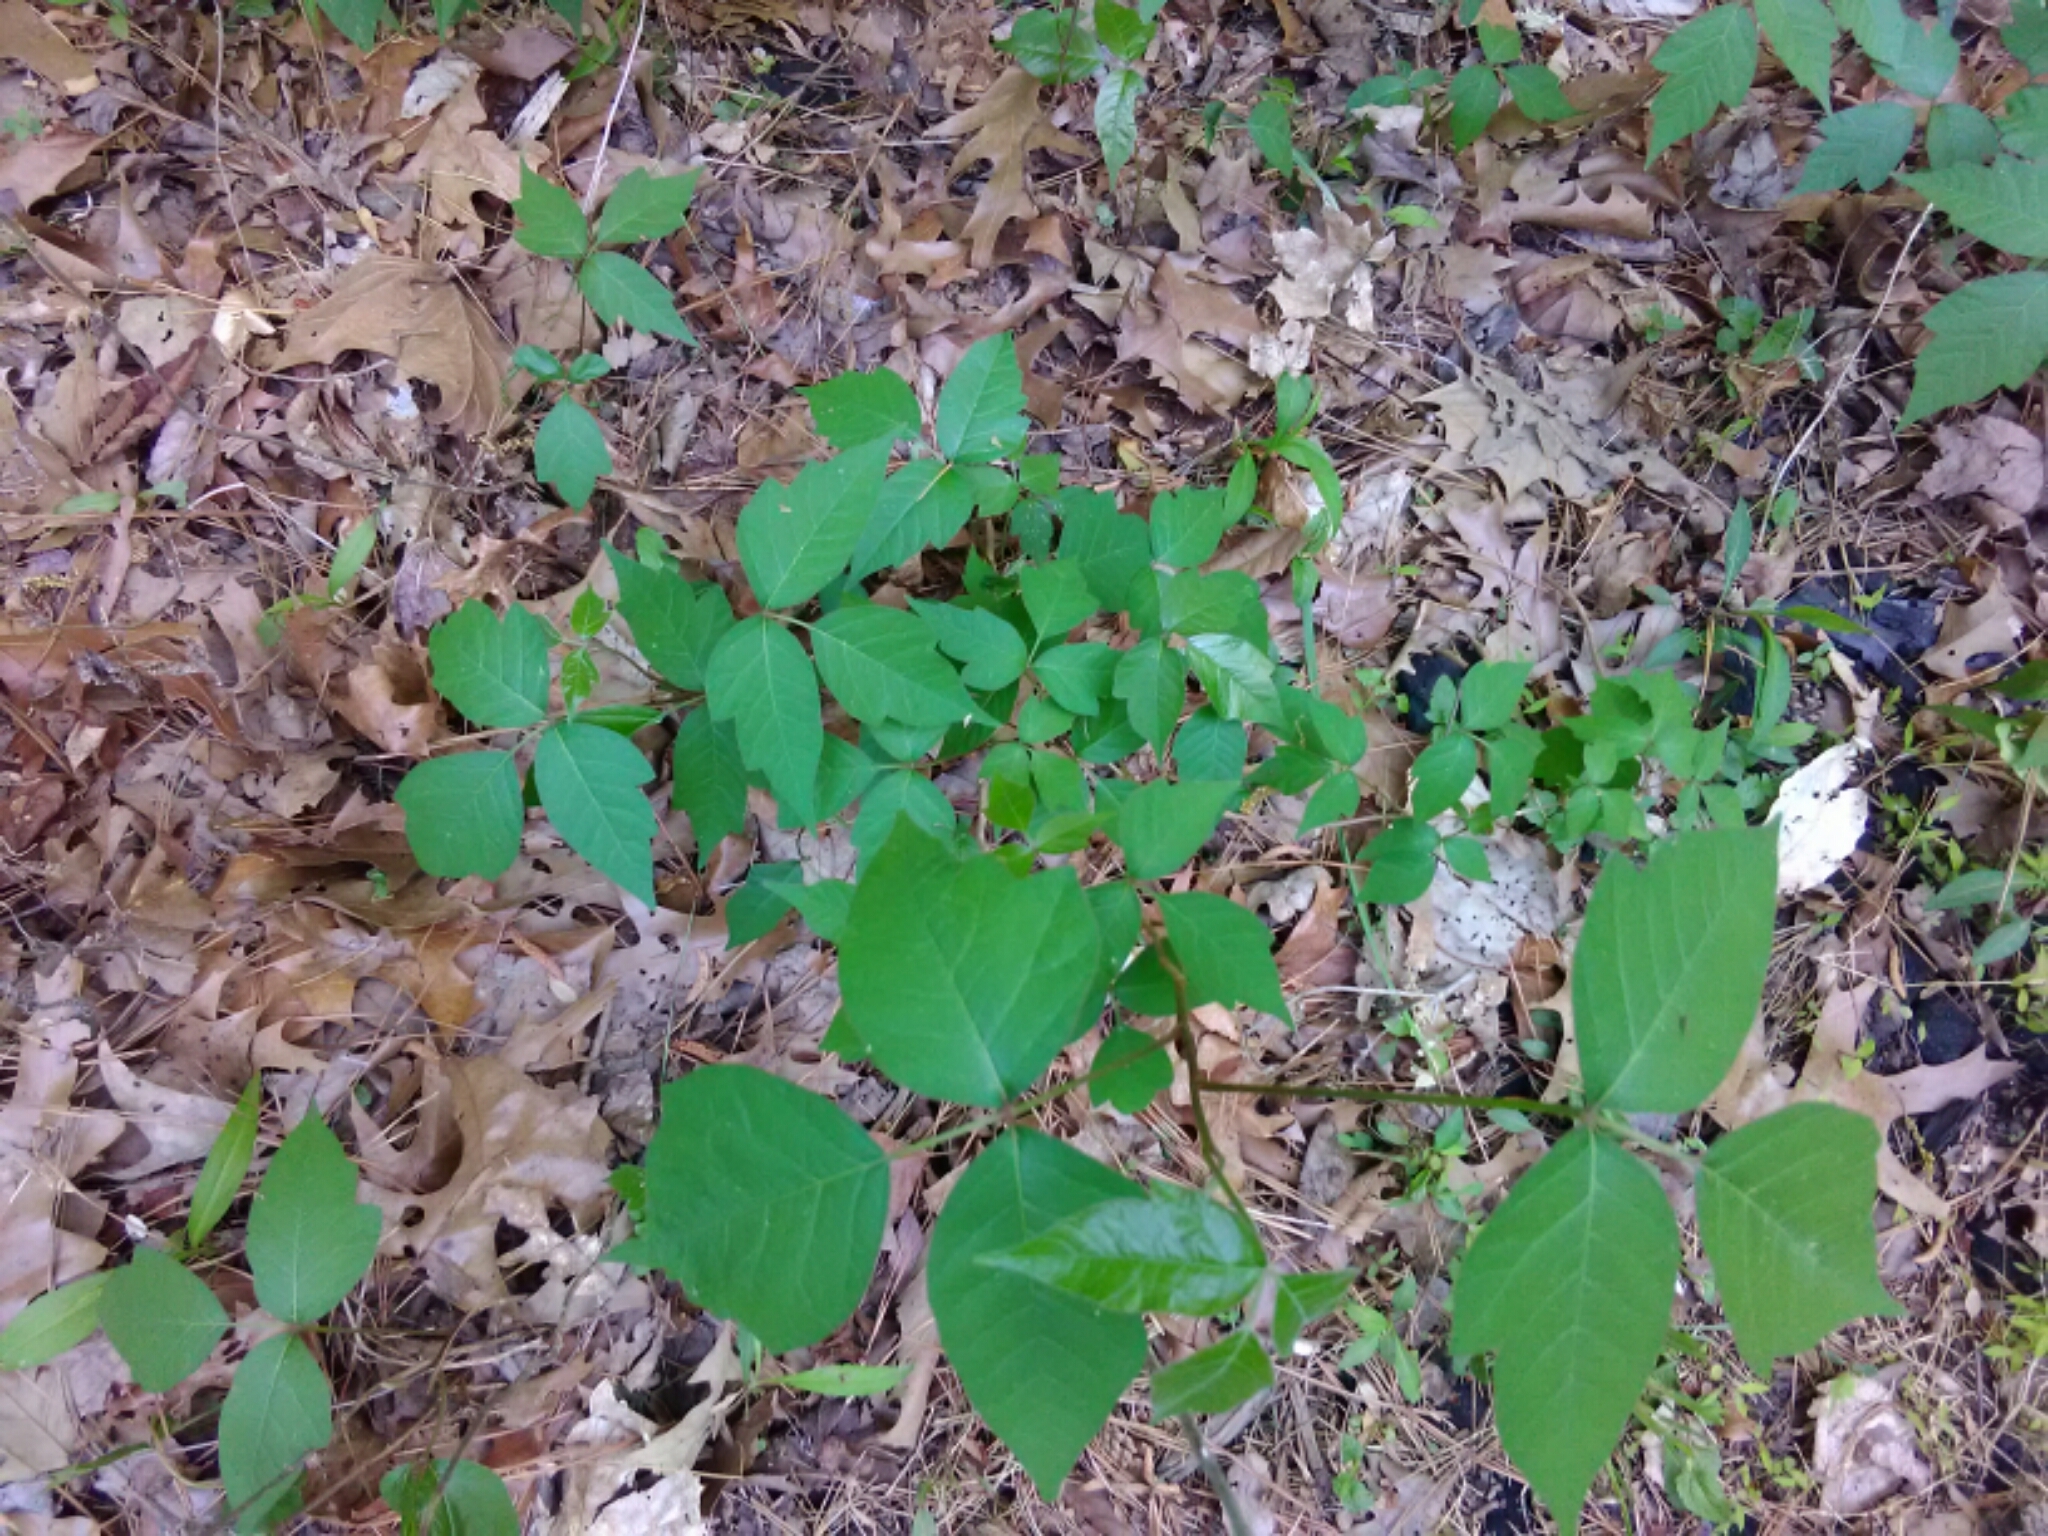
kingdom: Plantae
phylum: Tracheophyta
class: Magnoliopsida
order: Sapindales
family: Anacardiaceae
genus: Toxicodendron
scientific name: Toxicodendron radicans
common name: Poison ivy
